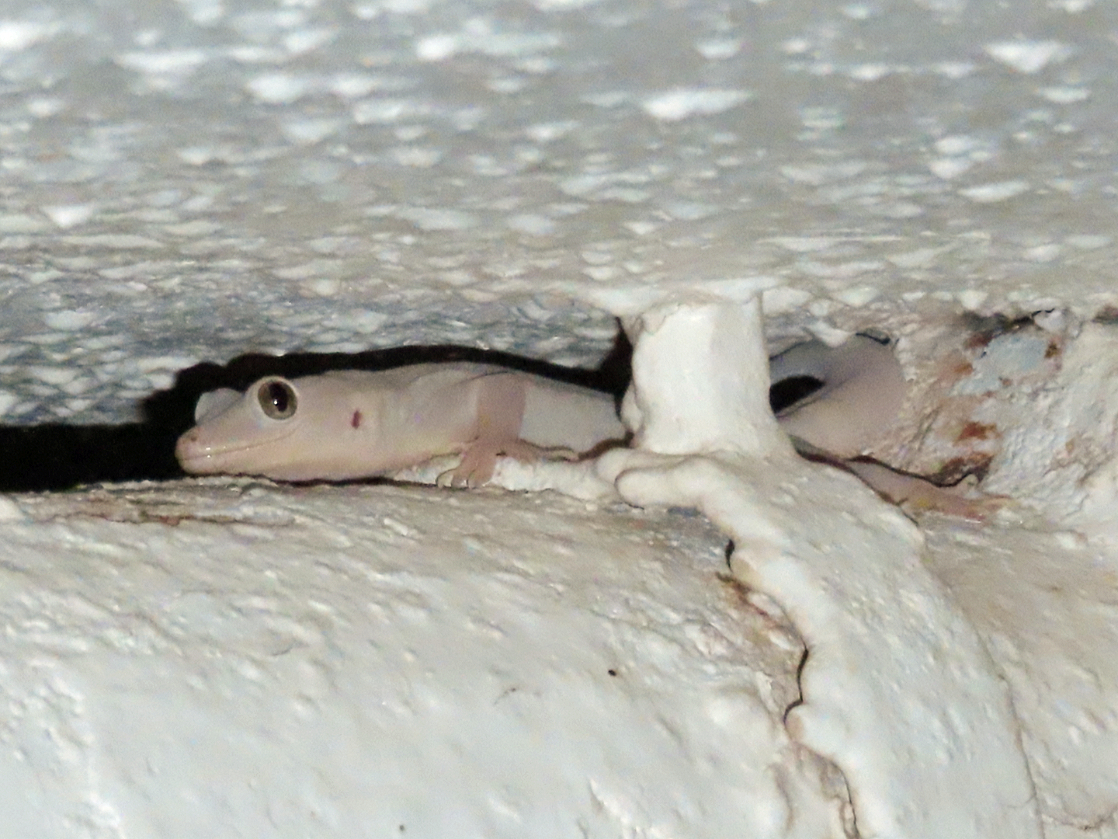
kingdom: Animalia
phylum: Chordata
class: Squamata
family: Gekkonidae
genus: Hemidactylus
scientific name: Hemidactylus flaviviridis
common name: Northern house gecko
